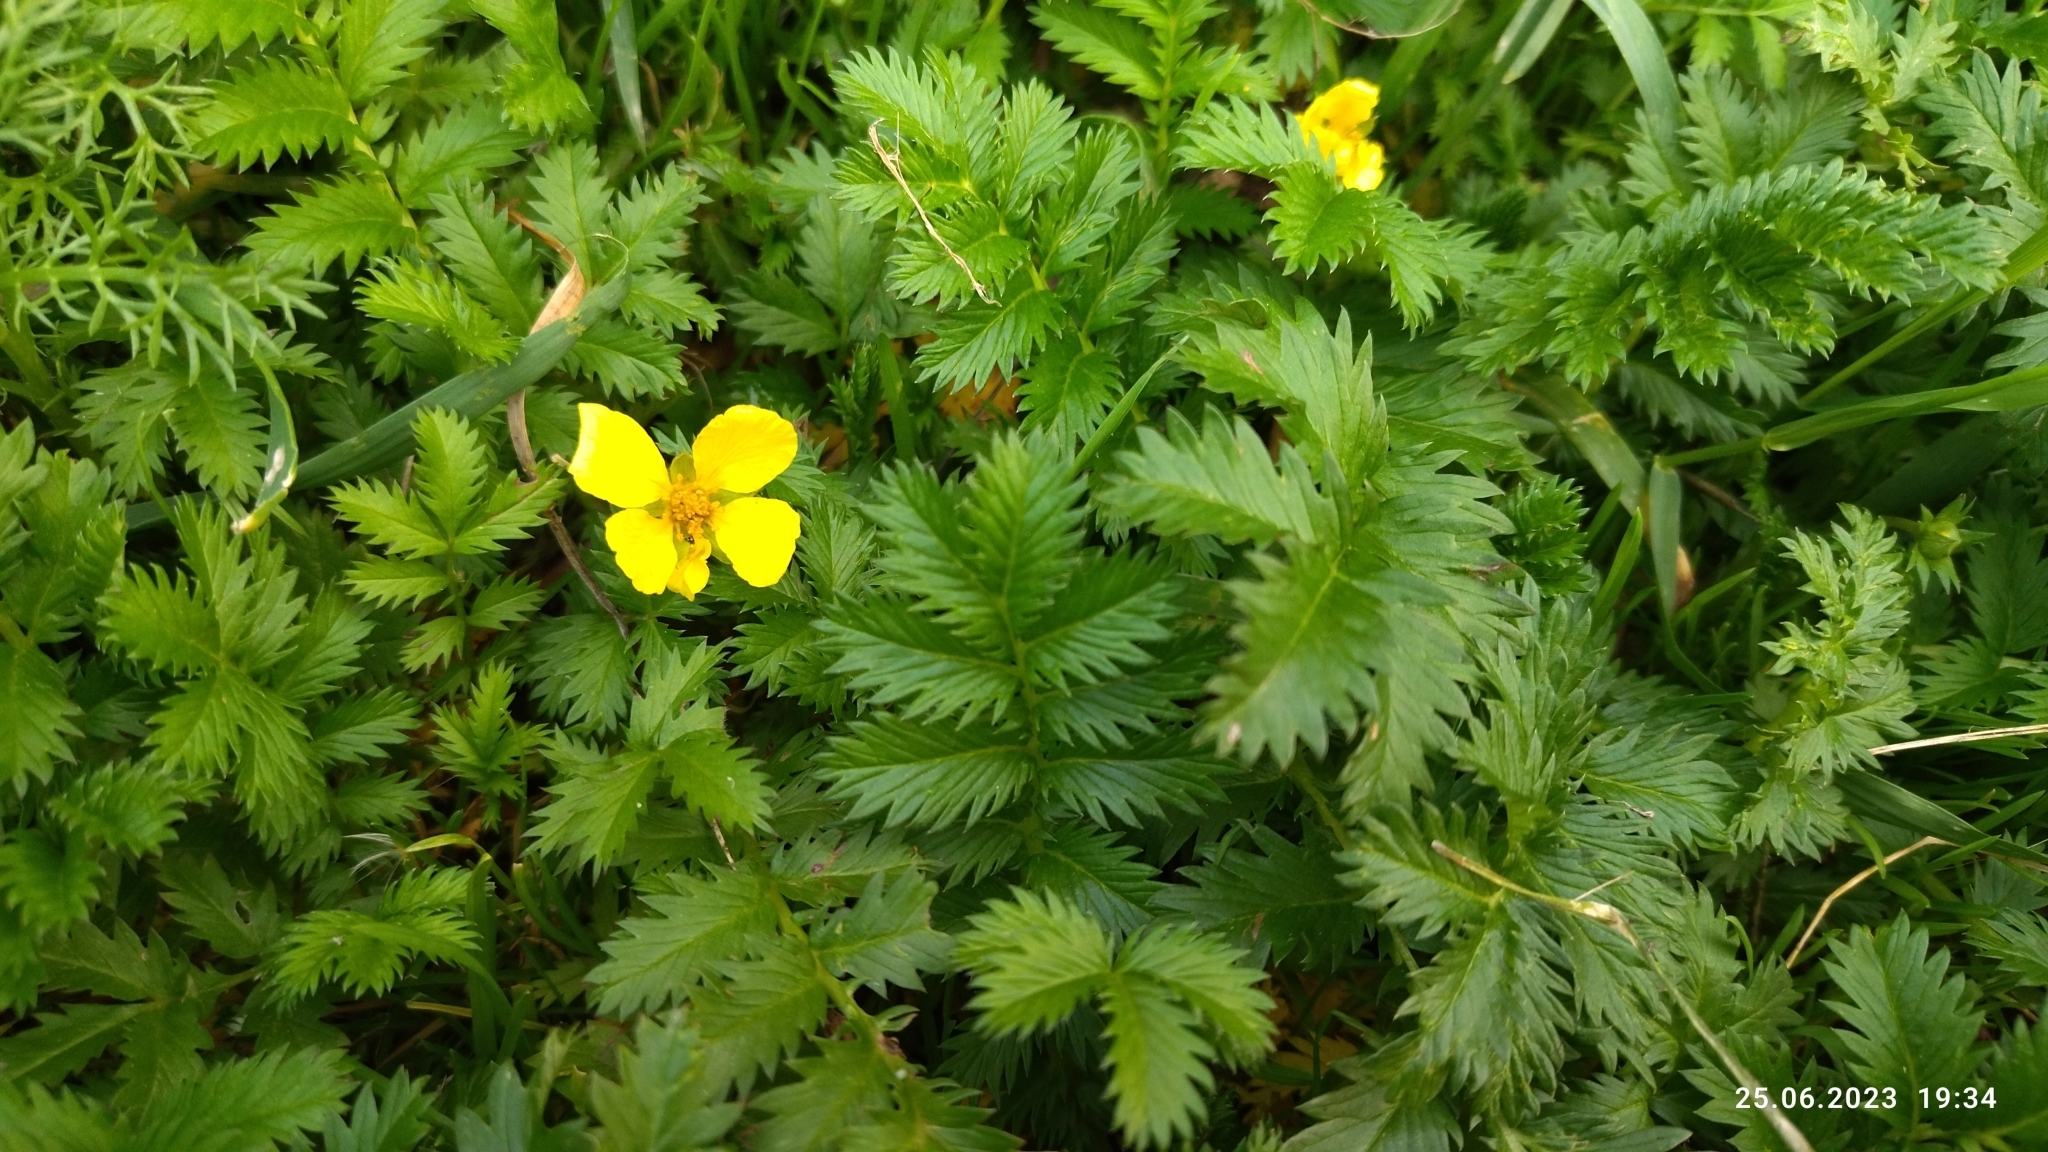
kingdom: Plantae
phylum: Tracheophyta
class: Magnoliopsida
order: Rosales
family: Rosaceae
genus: Argentina
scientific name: Argentina anserina
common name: Common silverweed
